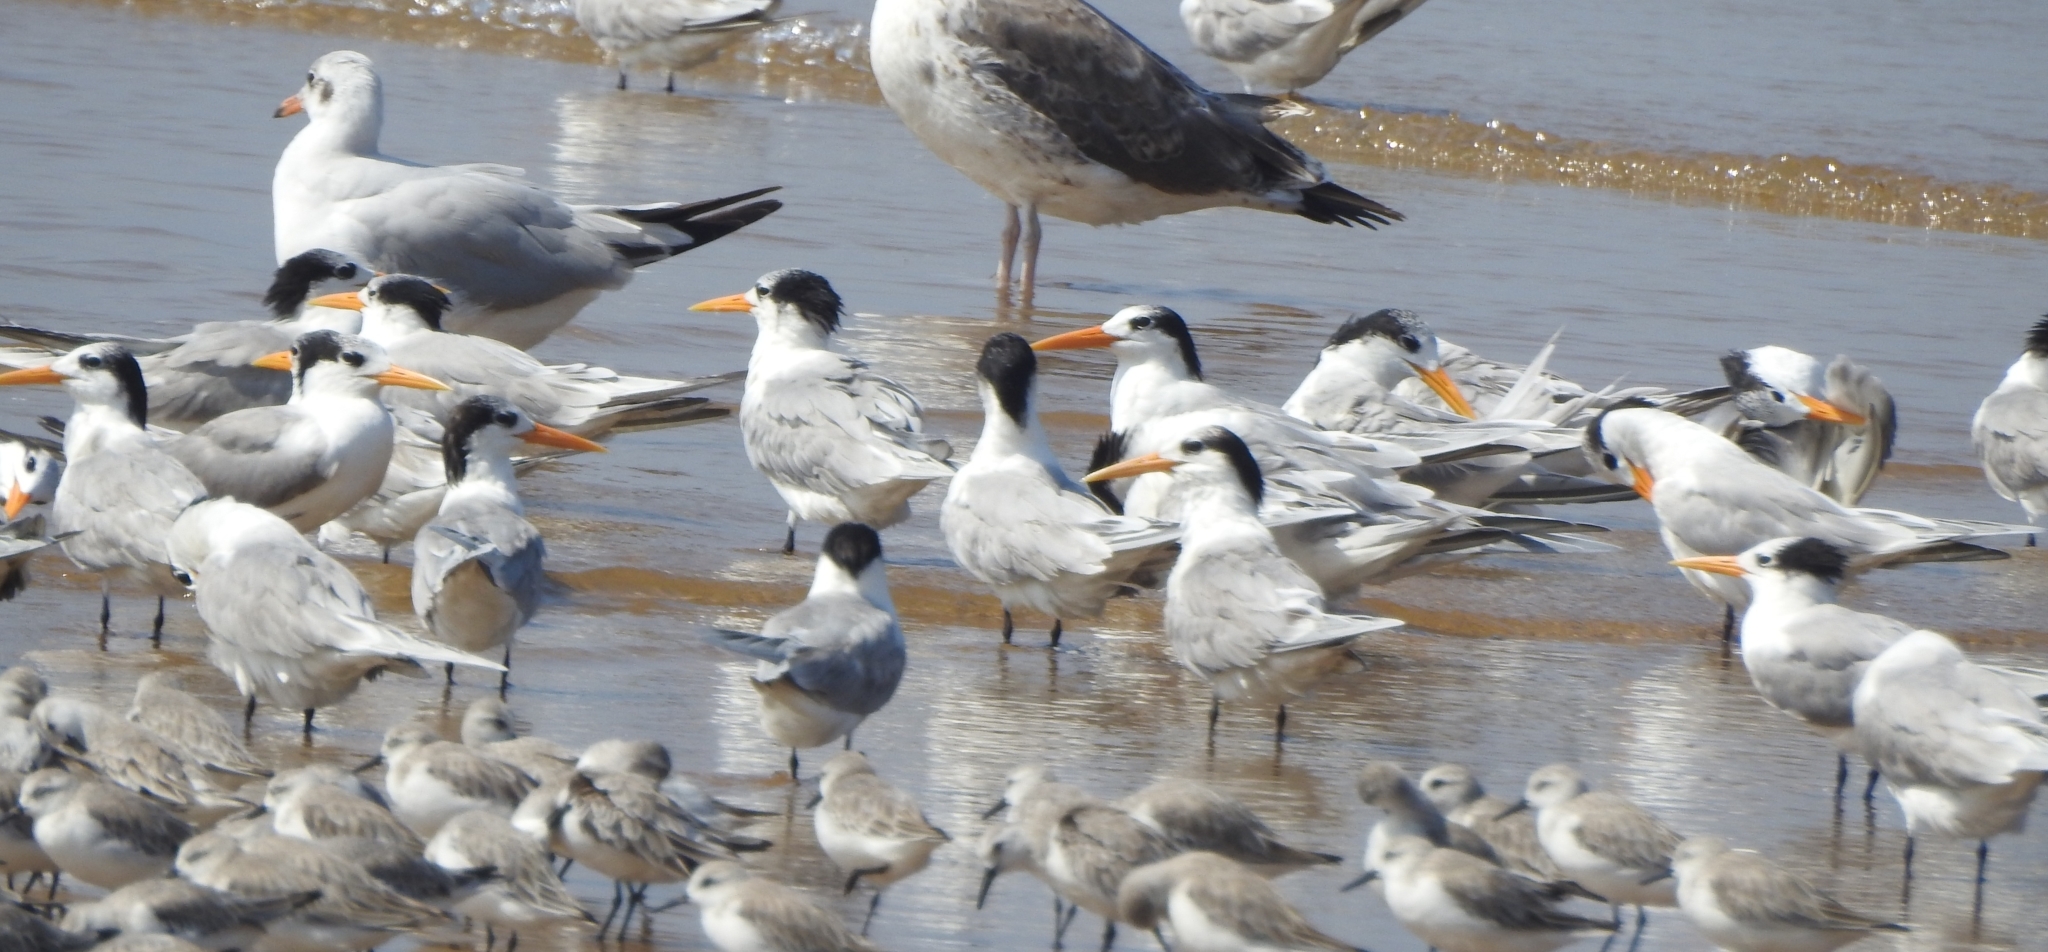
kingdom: Animalia
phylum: Chordata
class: Aves
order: Charadriiformes
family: Laridae
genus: Thalasseus
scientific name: Thalasseus bengalensis
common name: Lesser crested tern
